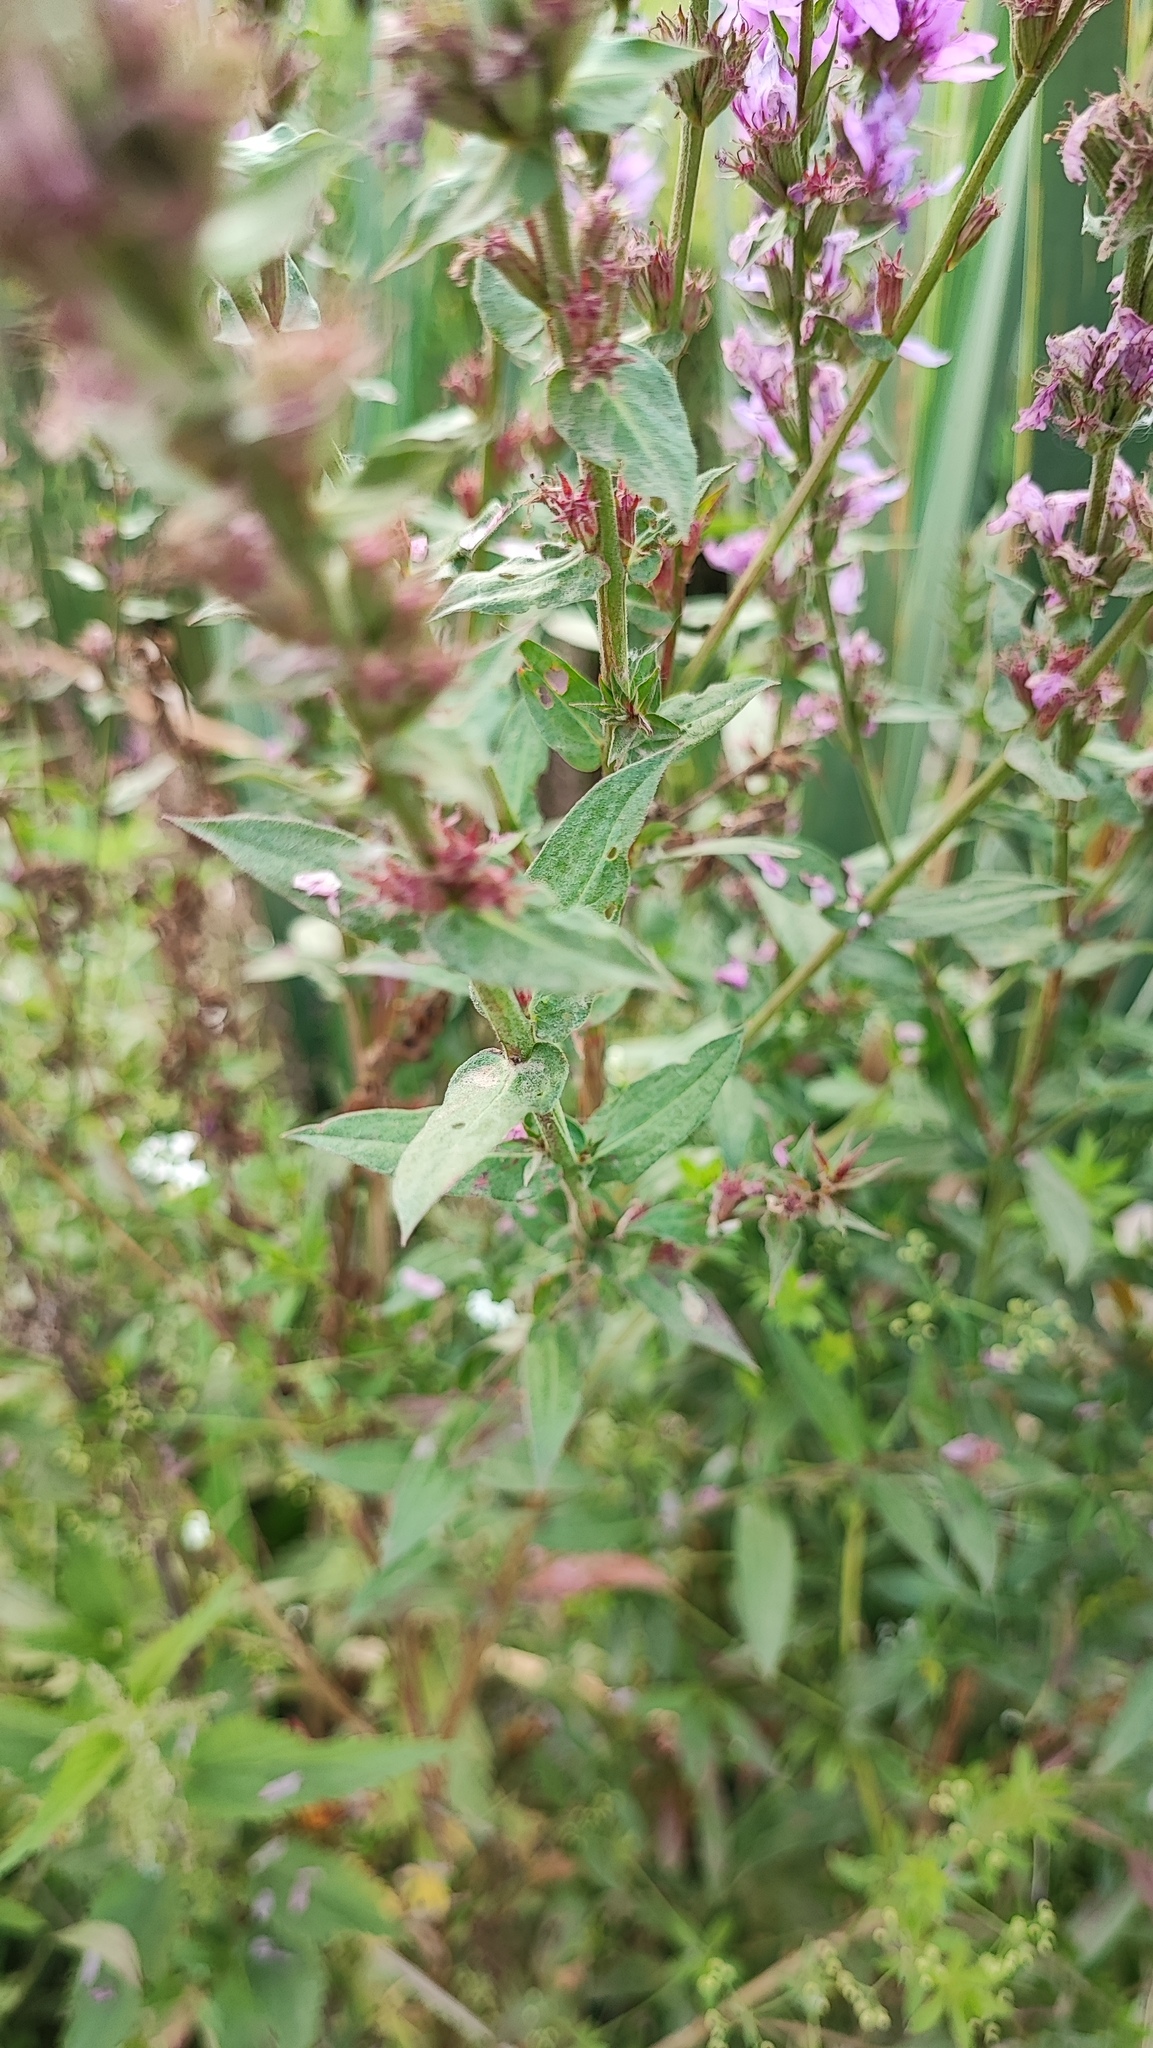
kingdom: Plantae
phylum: Tracheophyta
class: Magnoliopsida
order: Myrtales
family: Lythraceae
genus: Lythrum
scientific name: Lythrum salicaria
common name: Purple loosestrife
